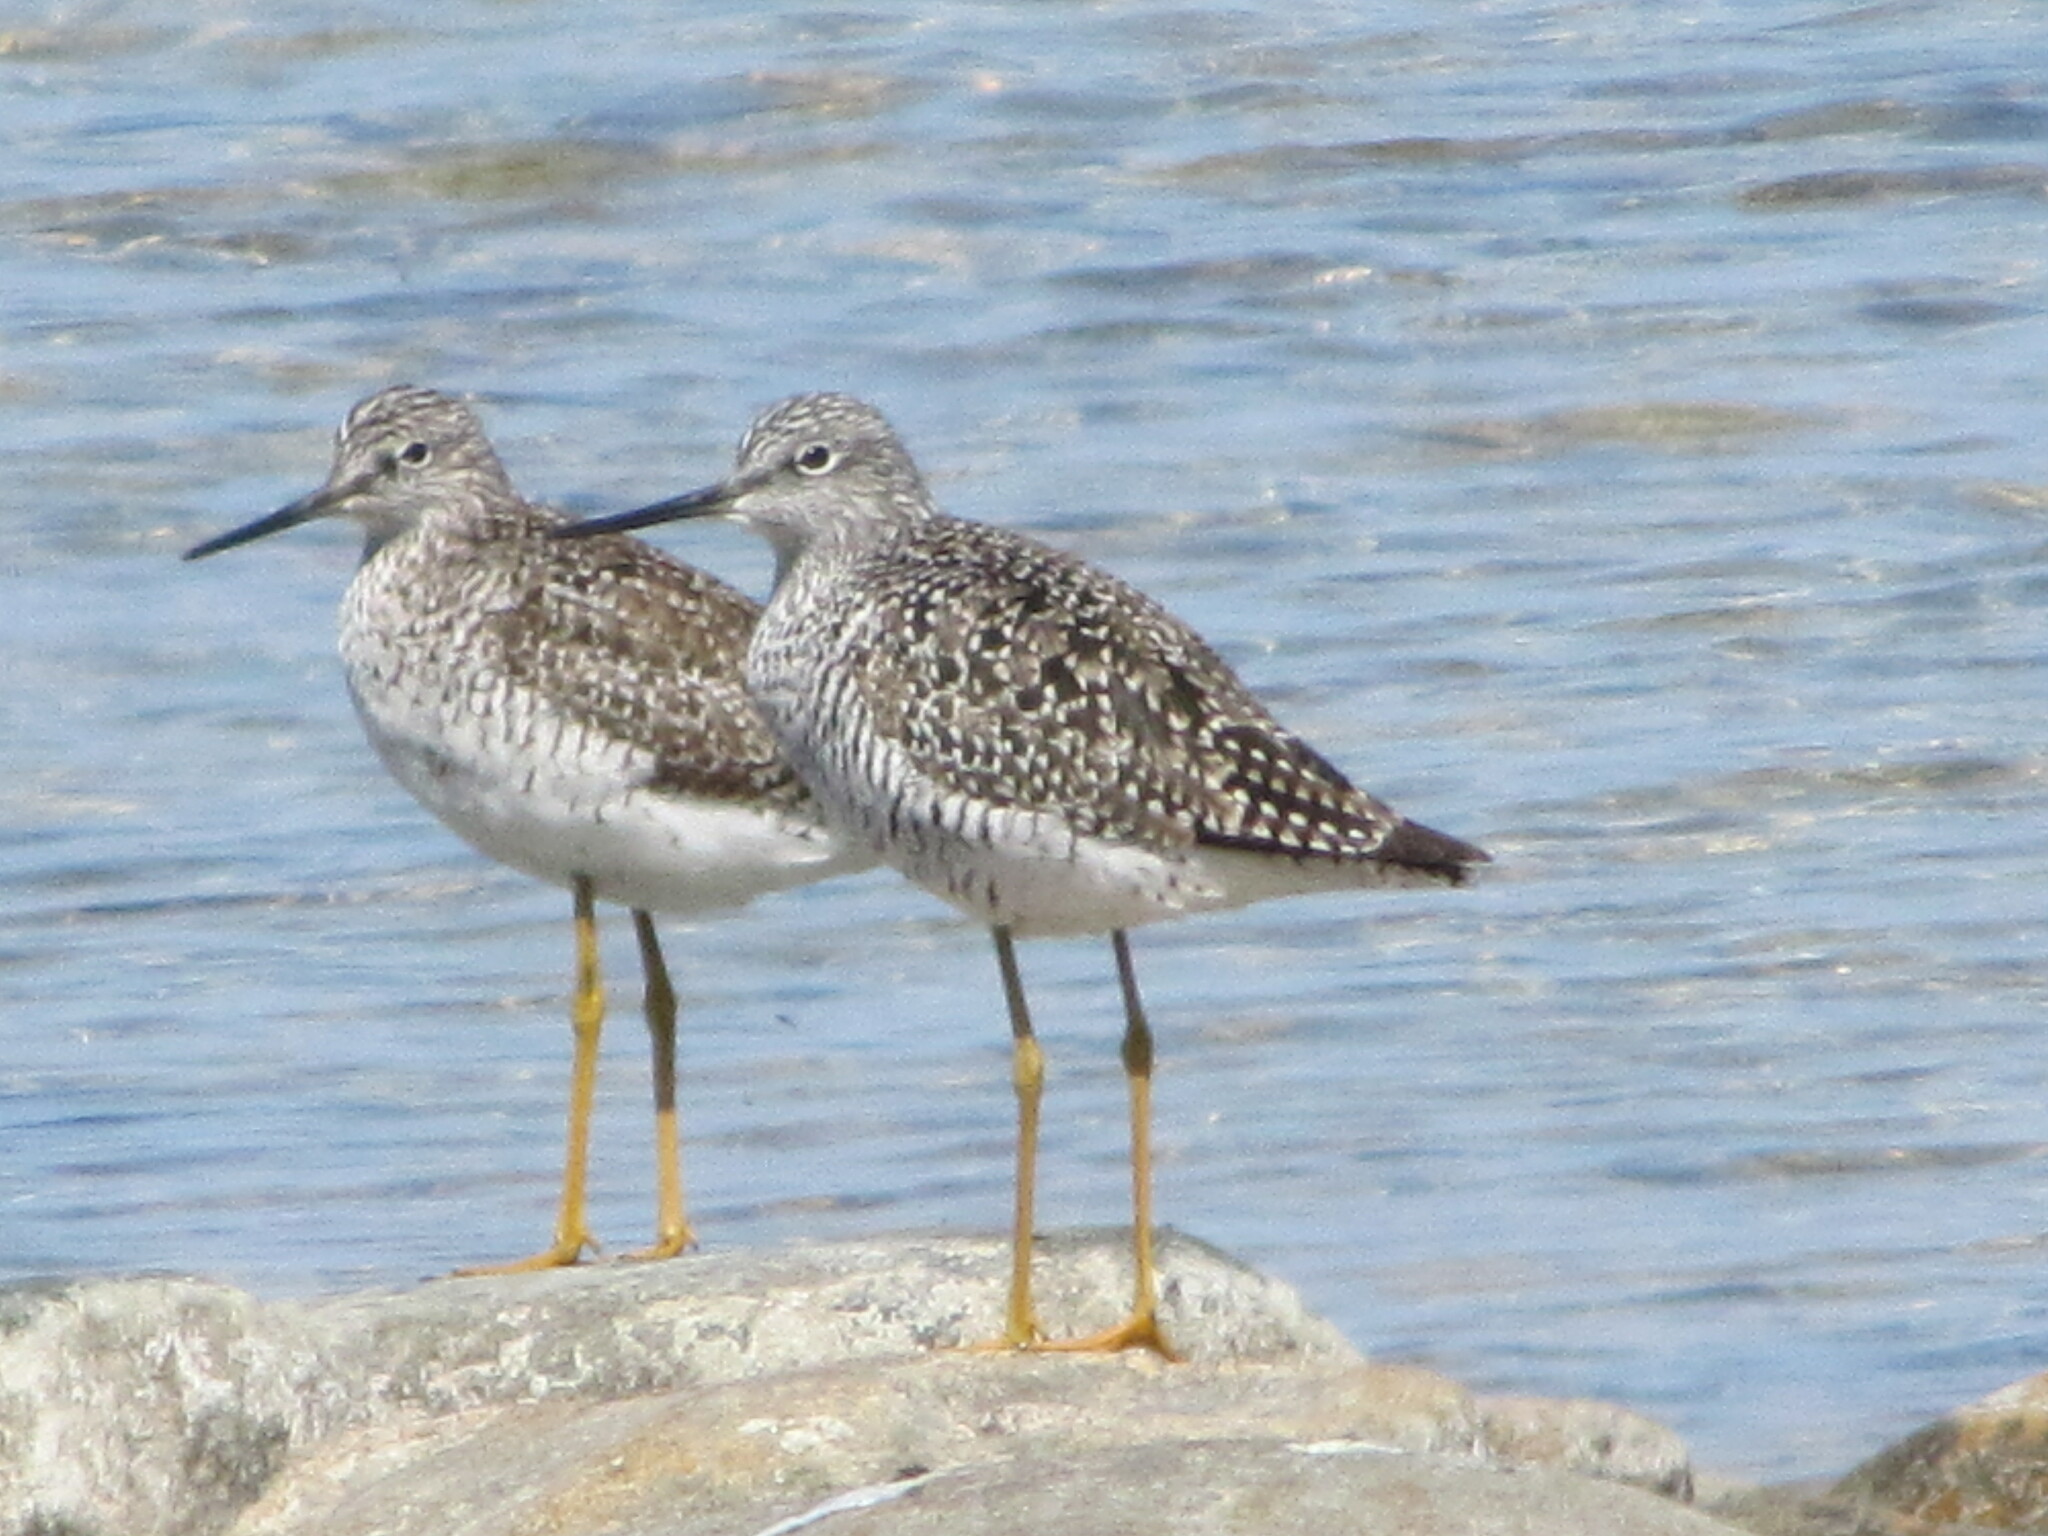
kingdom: Animalia
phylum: Chordata
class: Aves
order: Charadriiformes
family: Scolopacidae
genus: Tringa
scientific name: Tringa melanoleuca
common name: Greater yellowlegs
